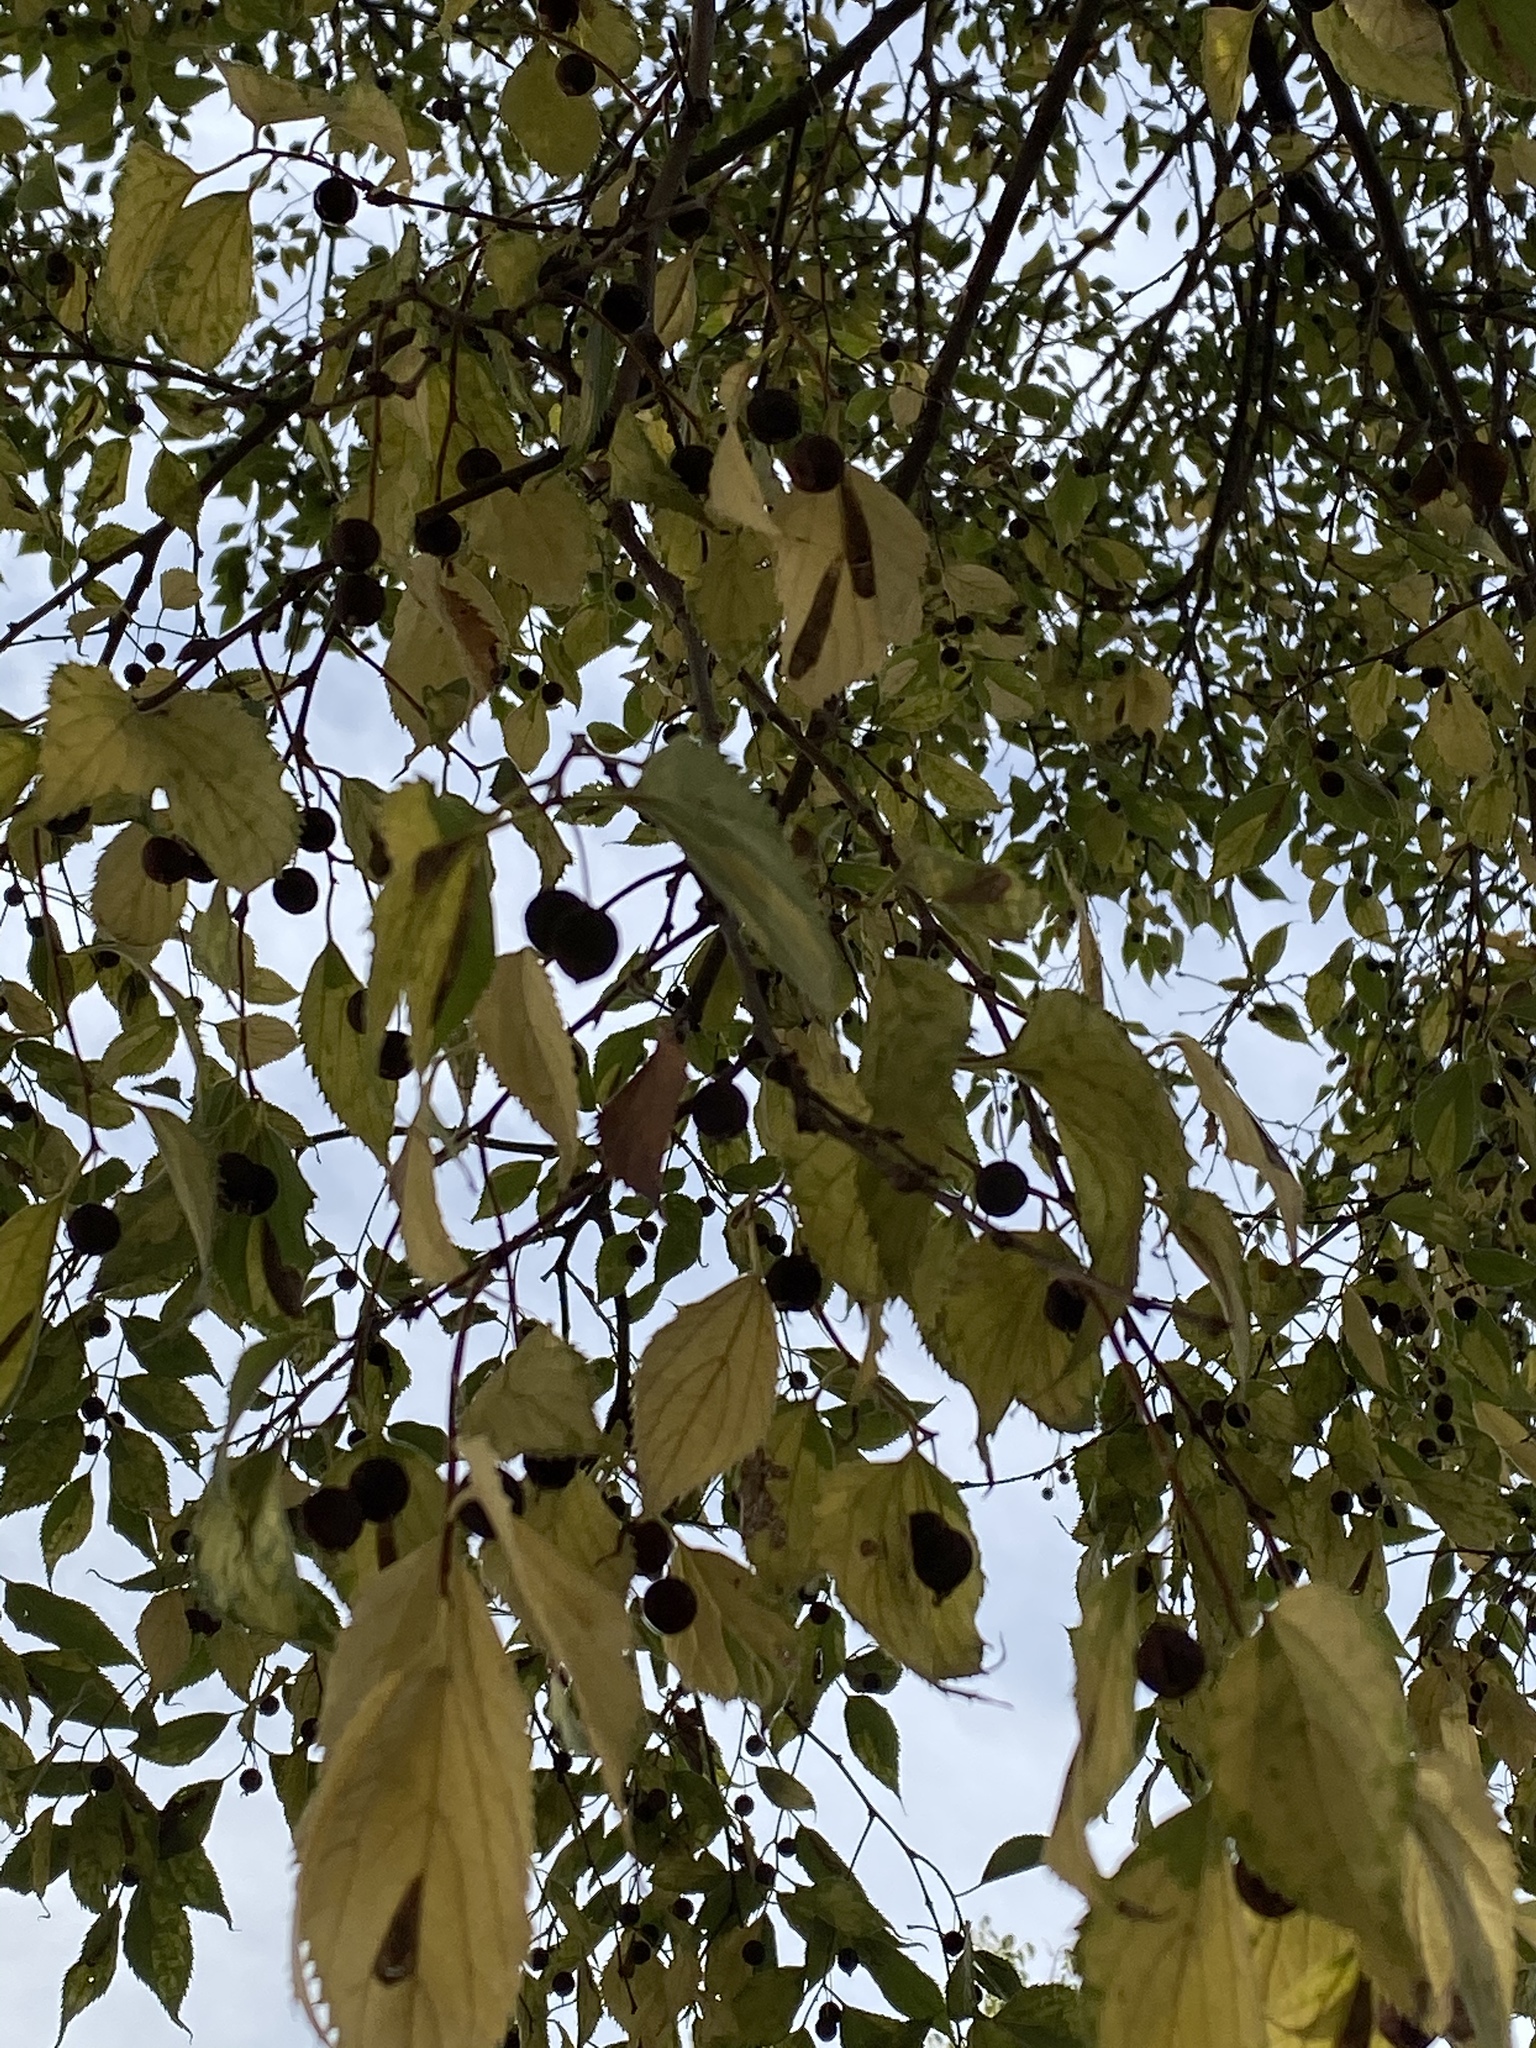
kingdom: Plantae
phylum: Tracheophyta
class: Magnoliopsida
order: Rosales
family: Cannabaceae
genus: Celtis
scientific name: Celtis australis
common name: European hackberry
